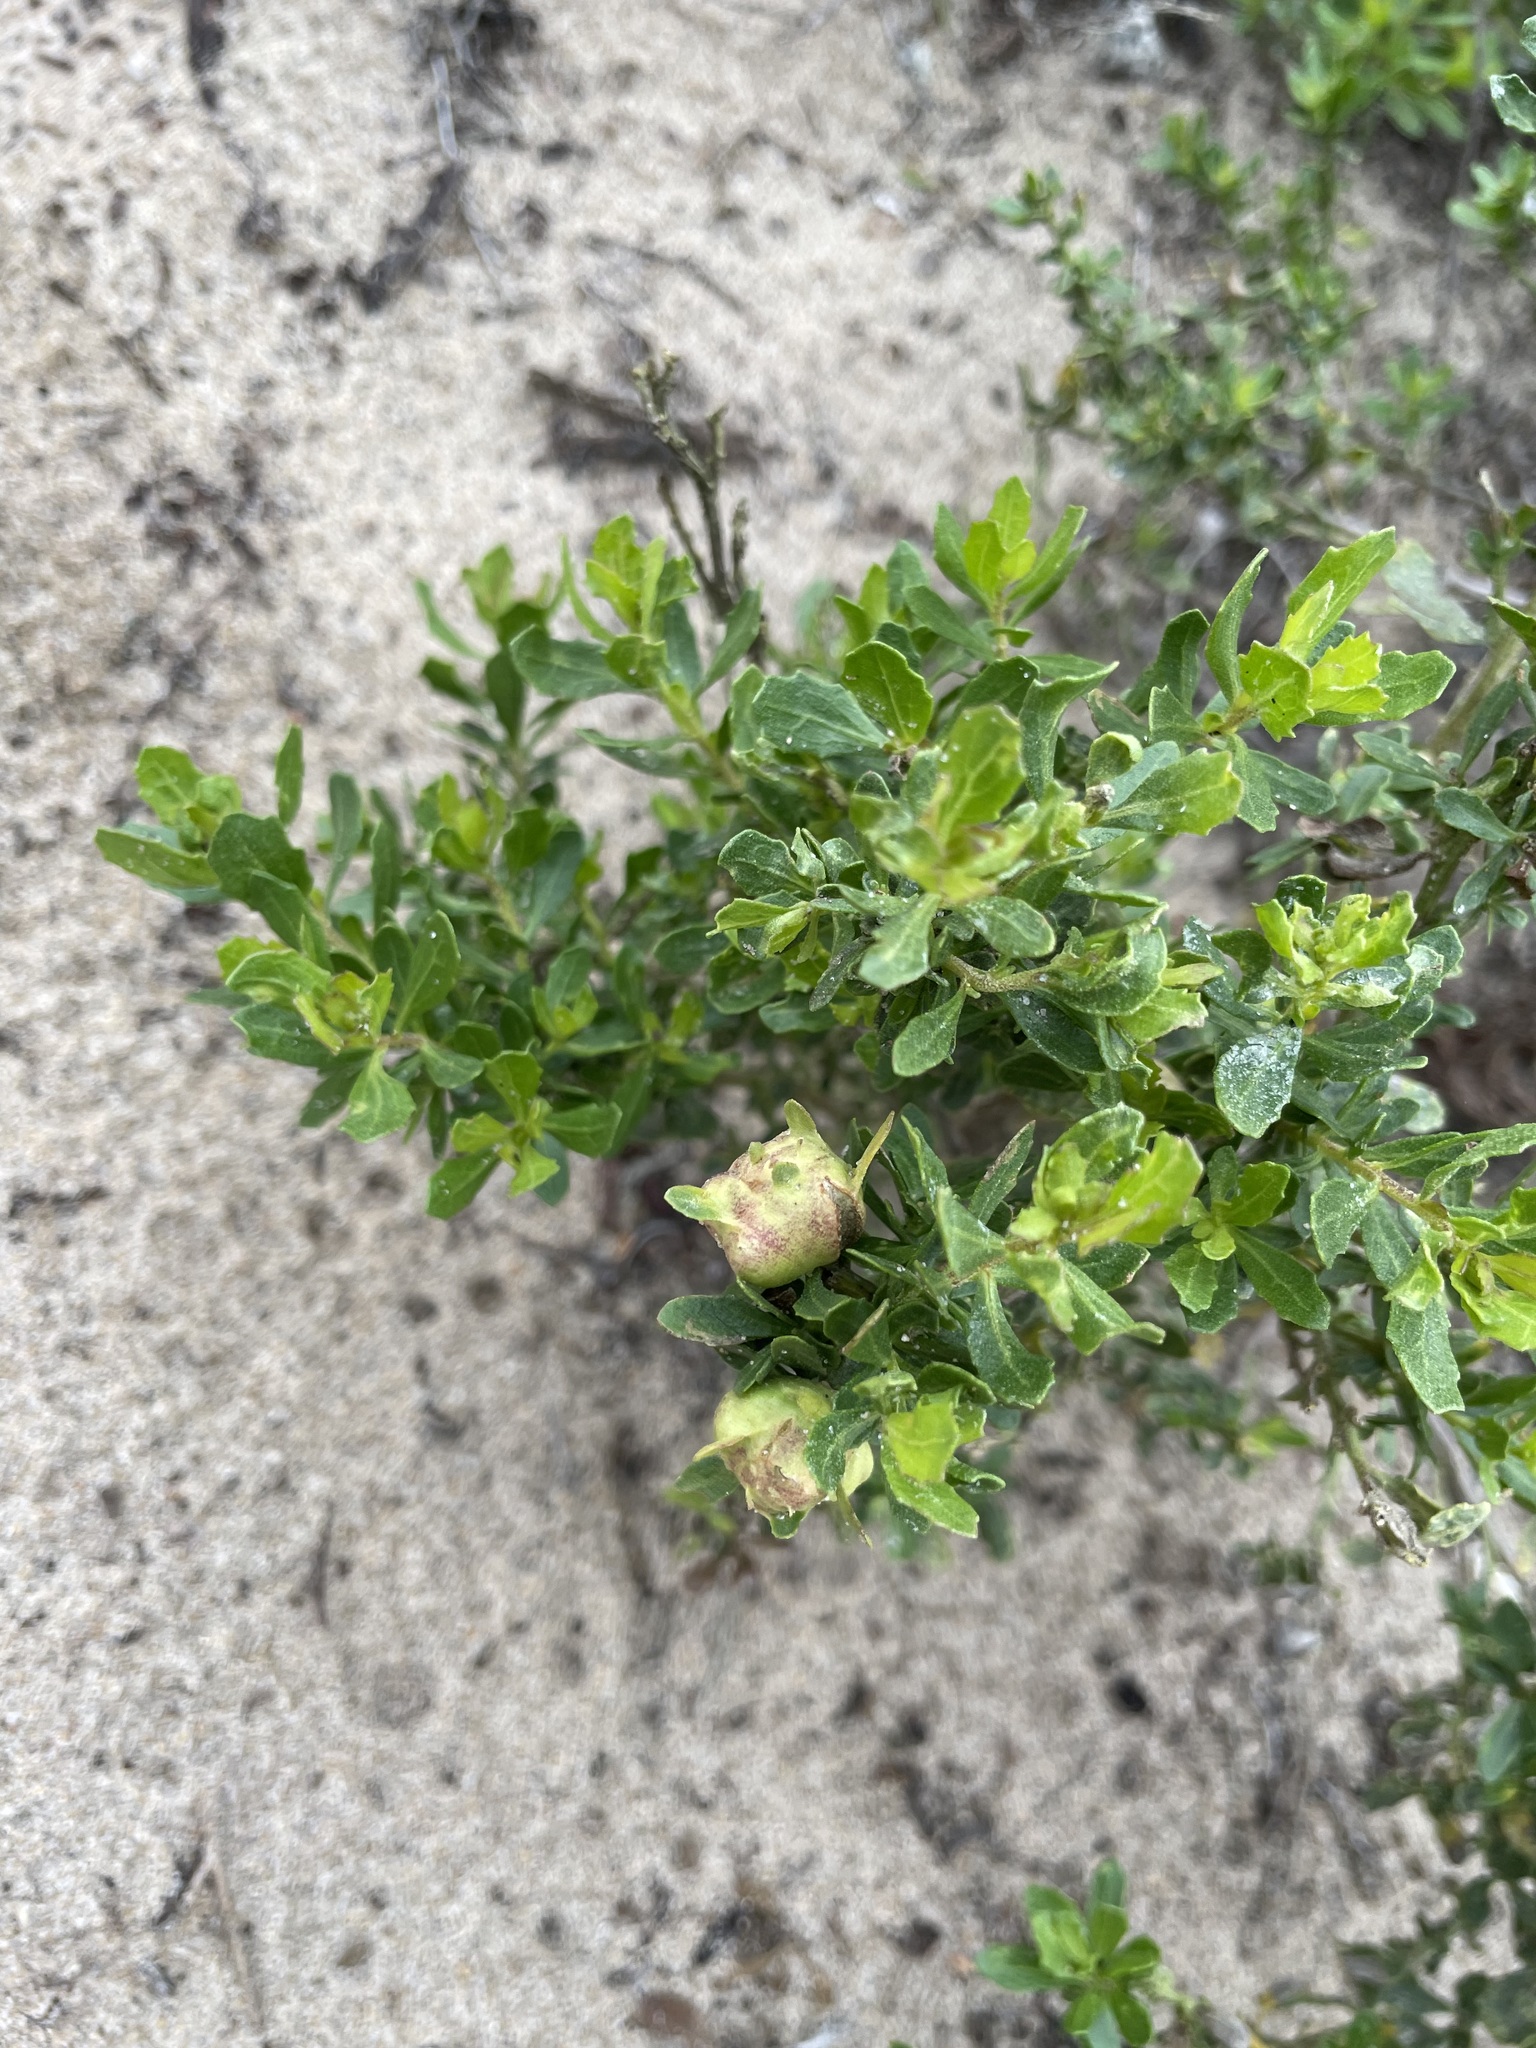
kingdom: Animalia
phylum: Arthropoda
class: Insecta
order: Diptera
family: Cecidomyiidae
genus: Rhopalomyia
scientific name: Rhopalomyia californica
